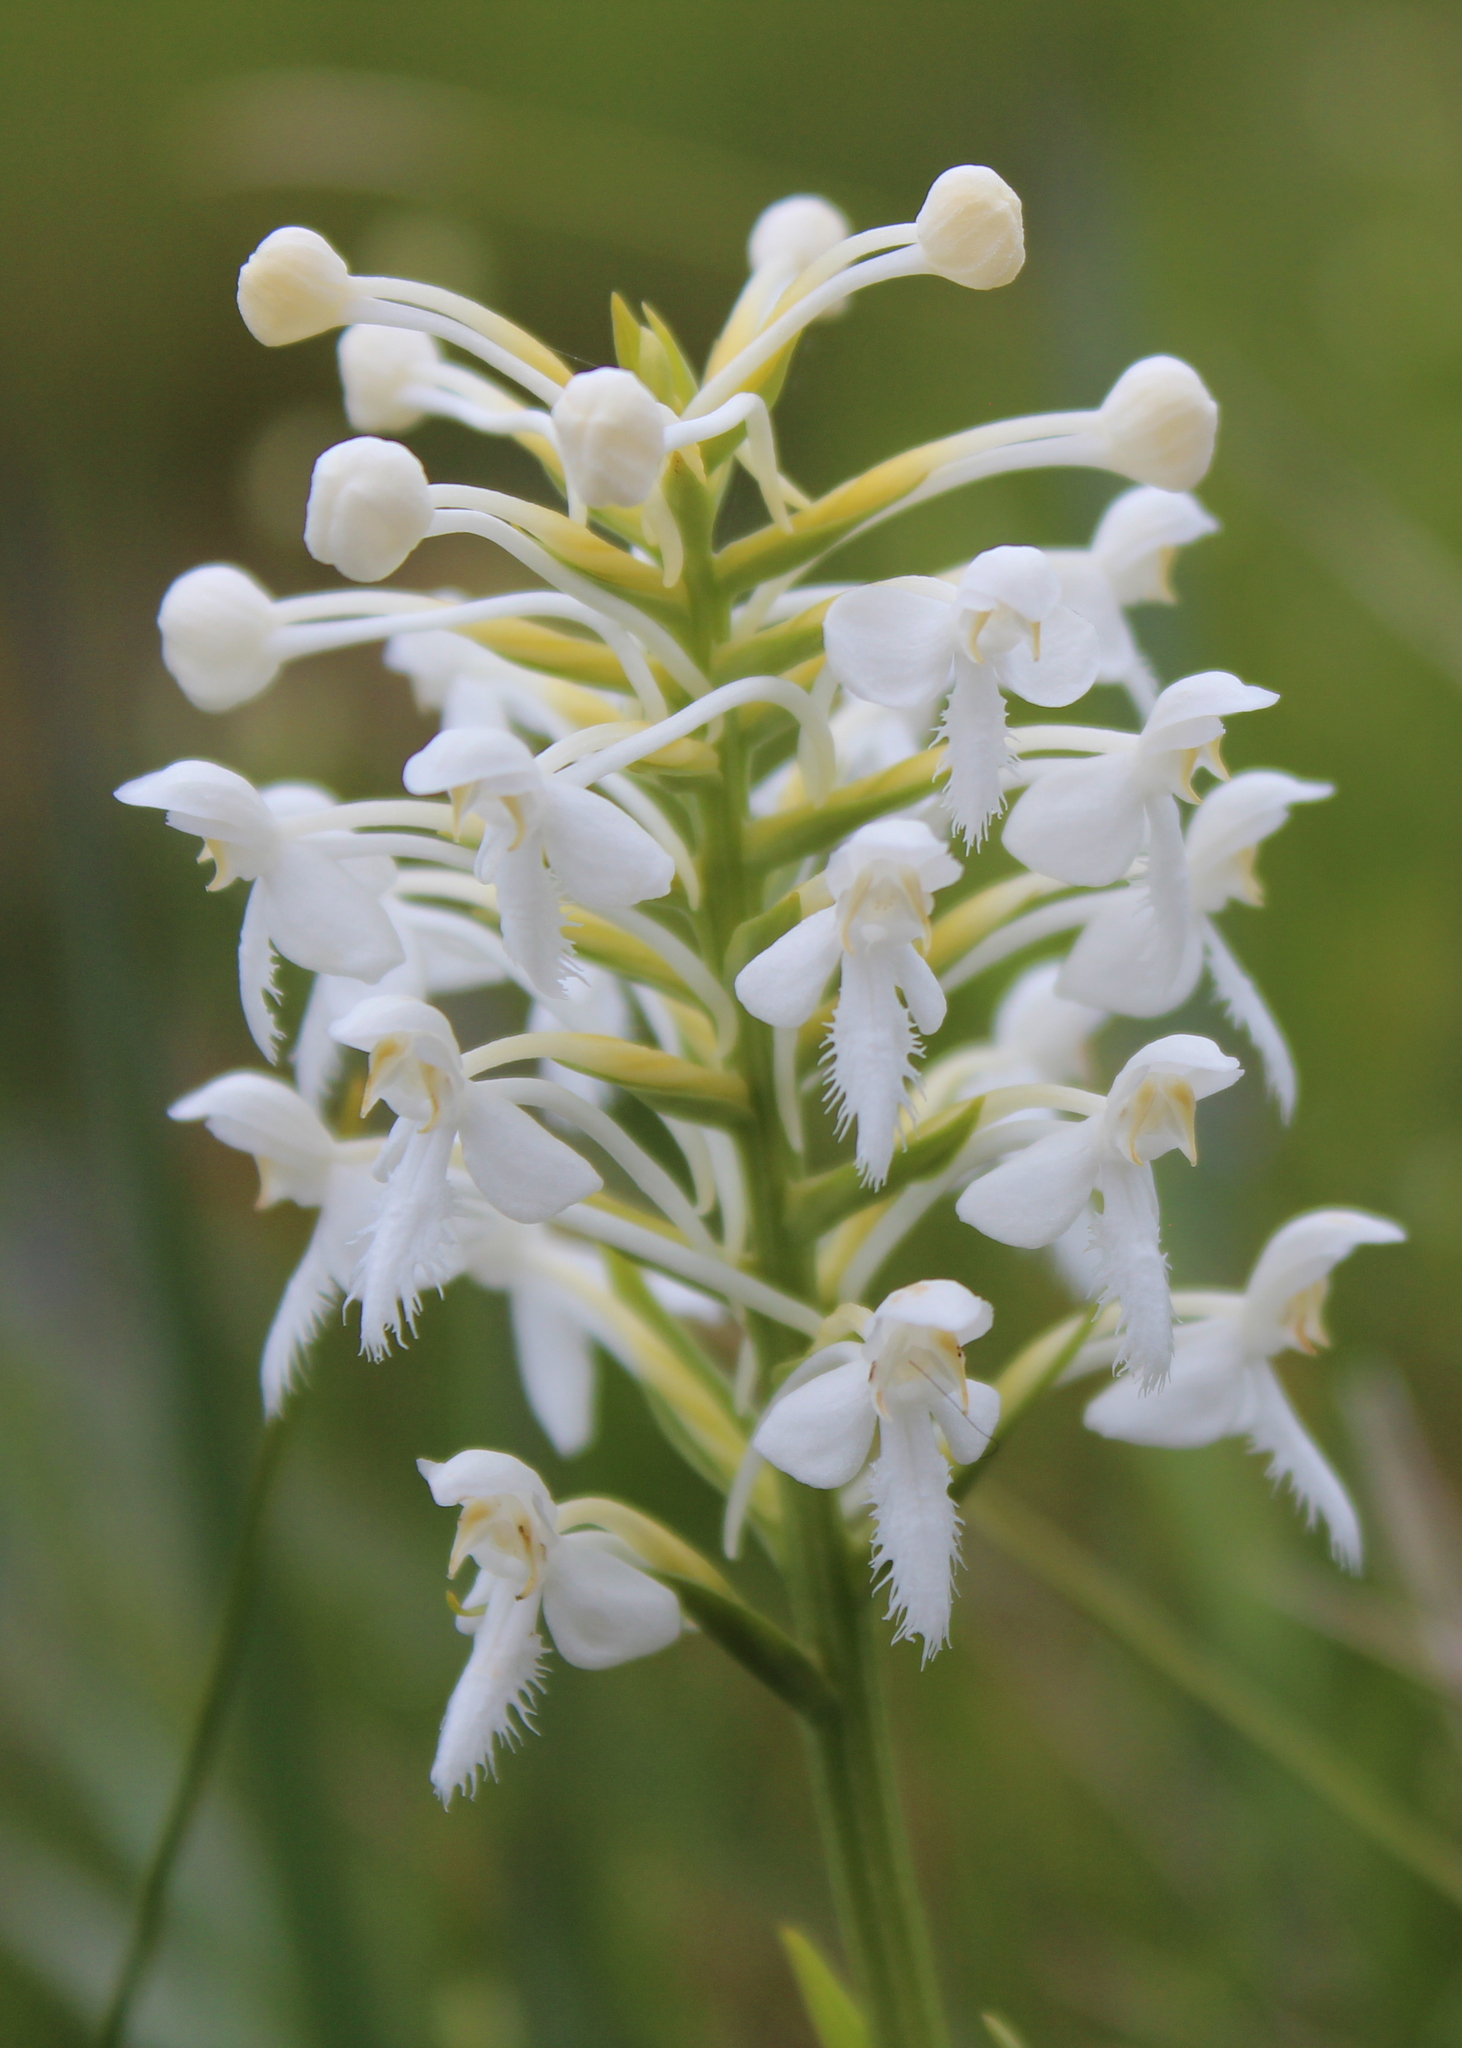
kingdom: Plantae
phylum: Tracheophyta
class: Liliopsida
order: Asparagales
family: Orchidaceae
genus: Platanthera
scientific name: Platanthera blephariglottis
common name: White fringed orchid
